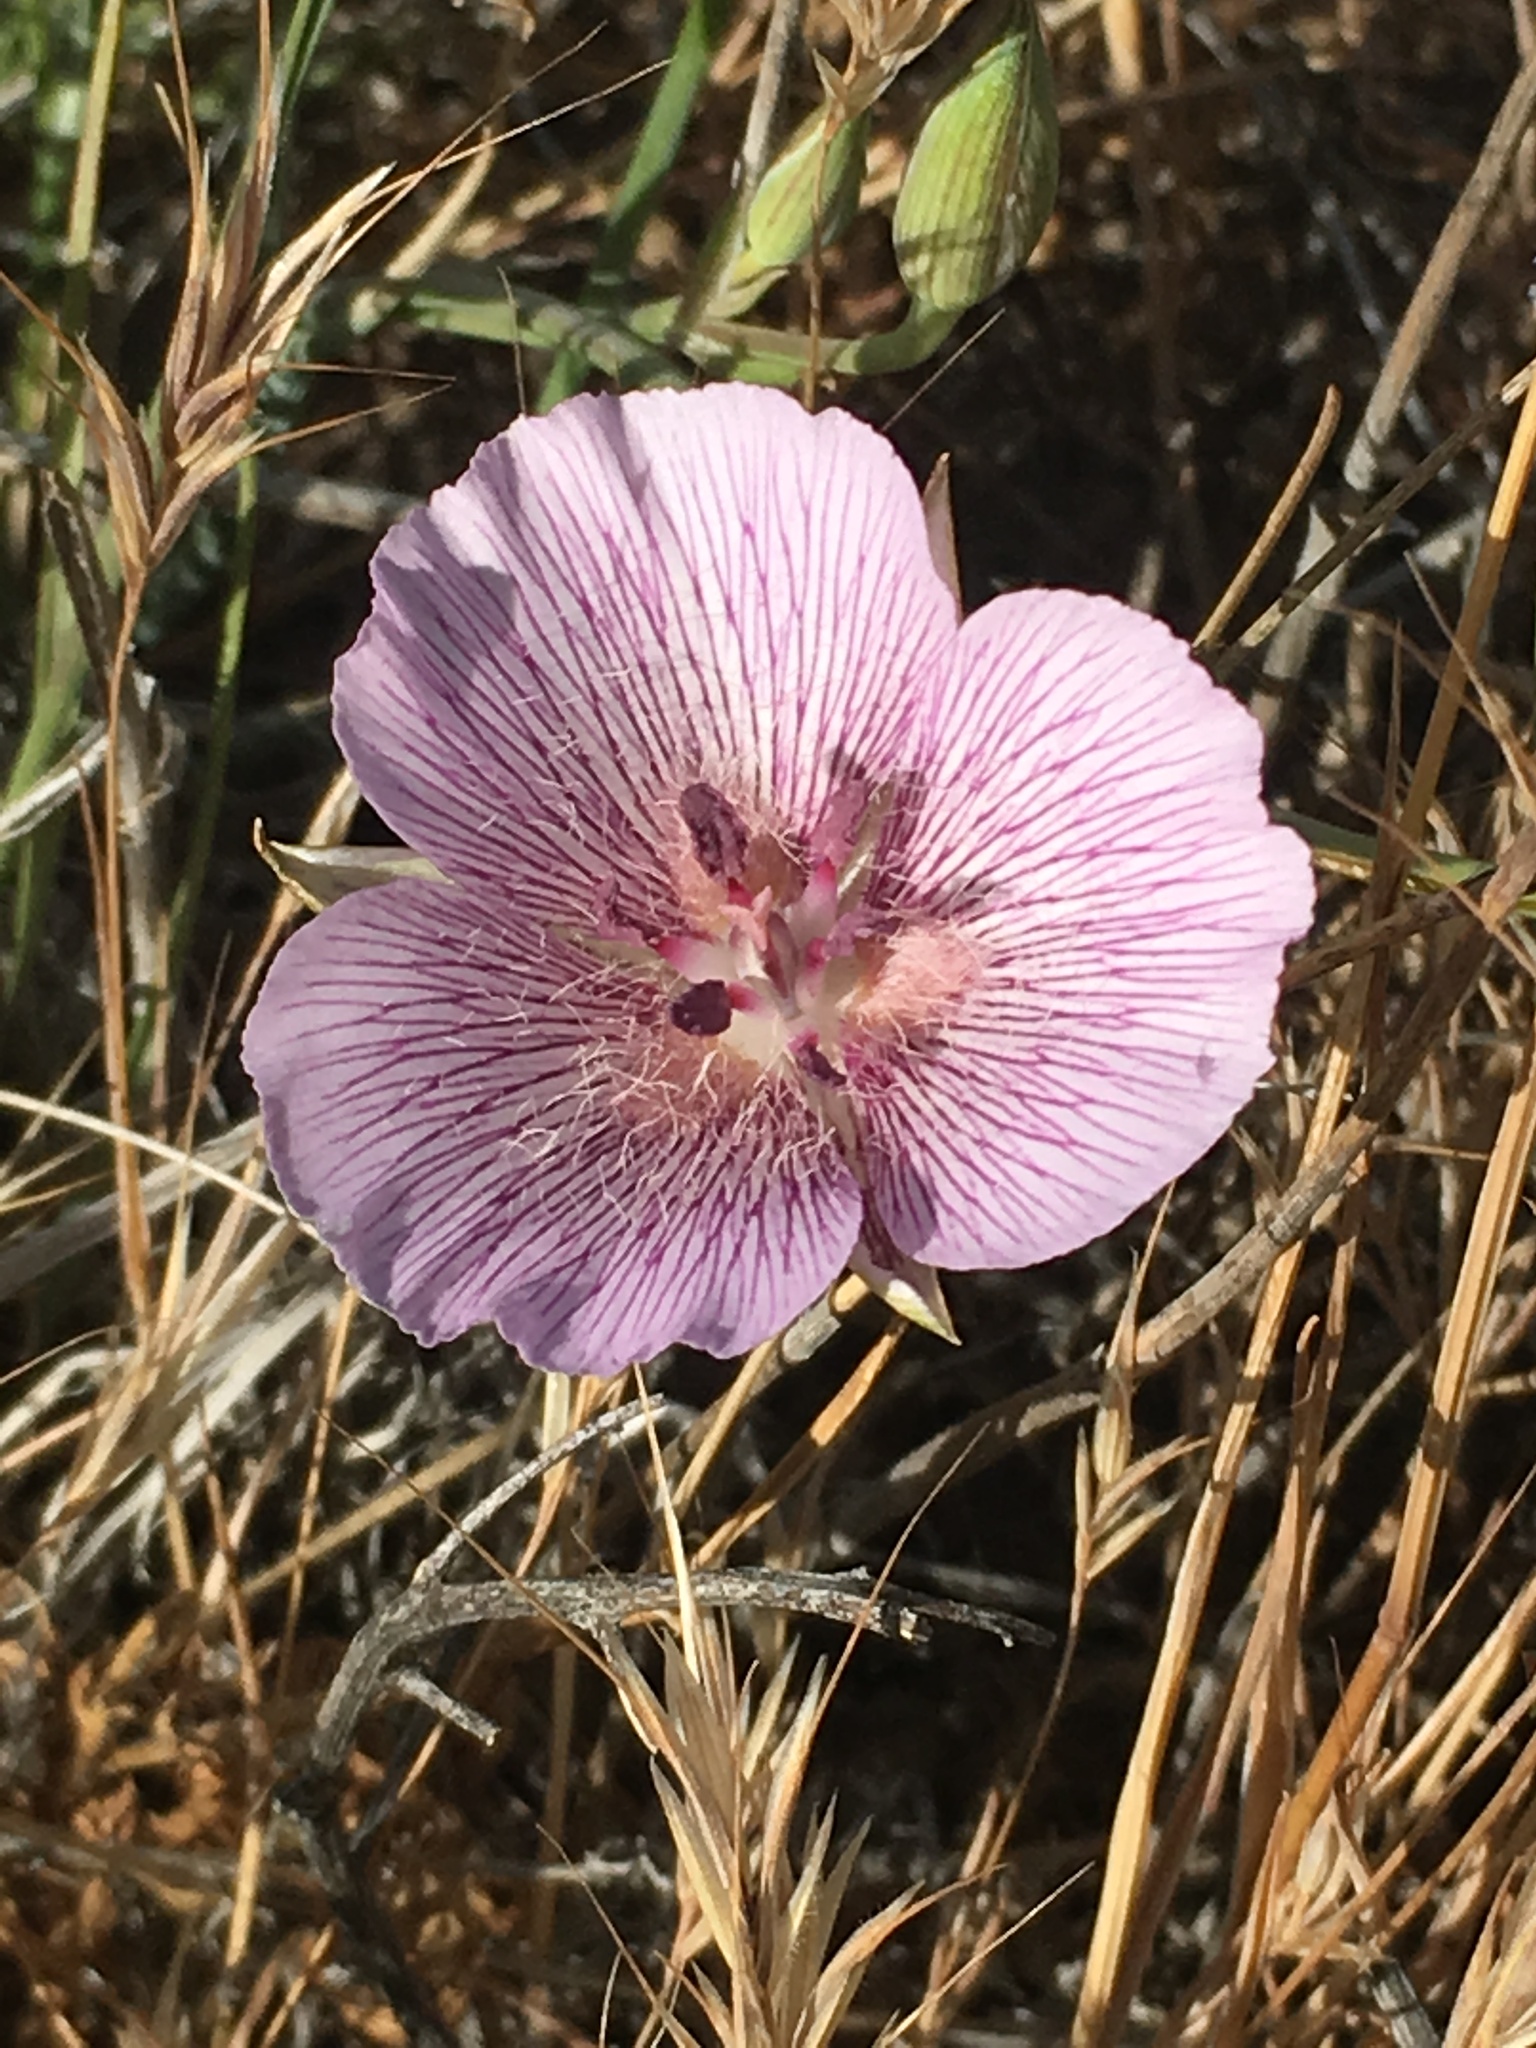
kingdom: Plantae
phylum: Tracheophyta
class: Liliopsida
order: Liliales
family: Liliaceae
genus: Calochortus
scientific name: Calochortus striatus
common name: Alkali mariposa-lily
